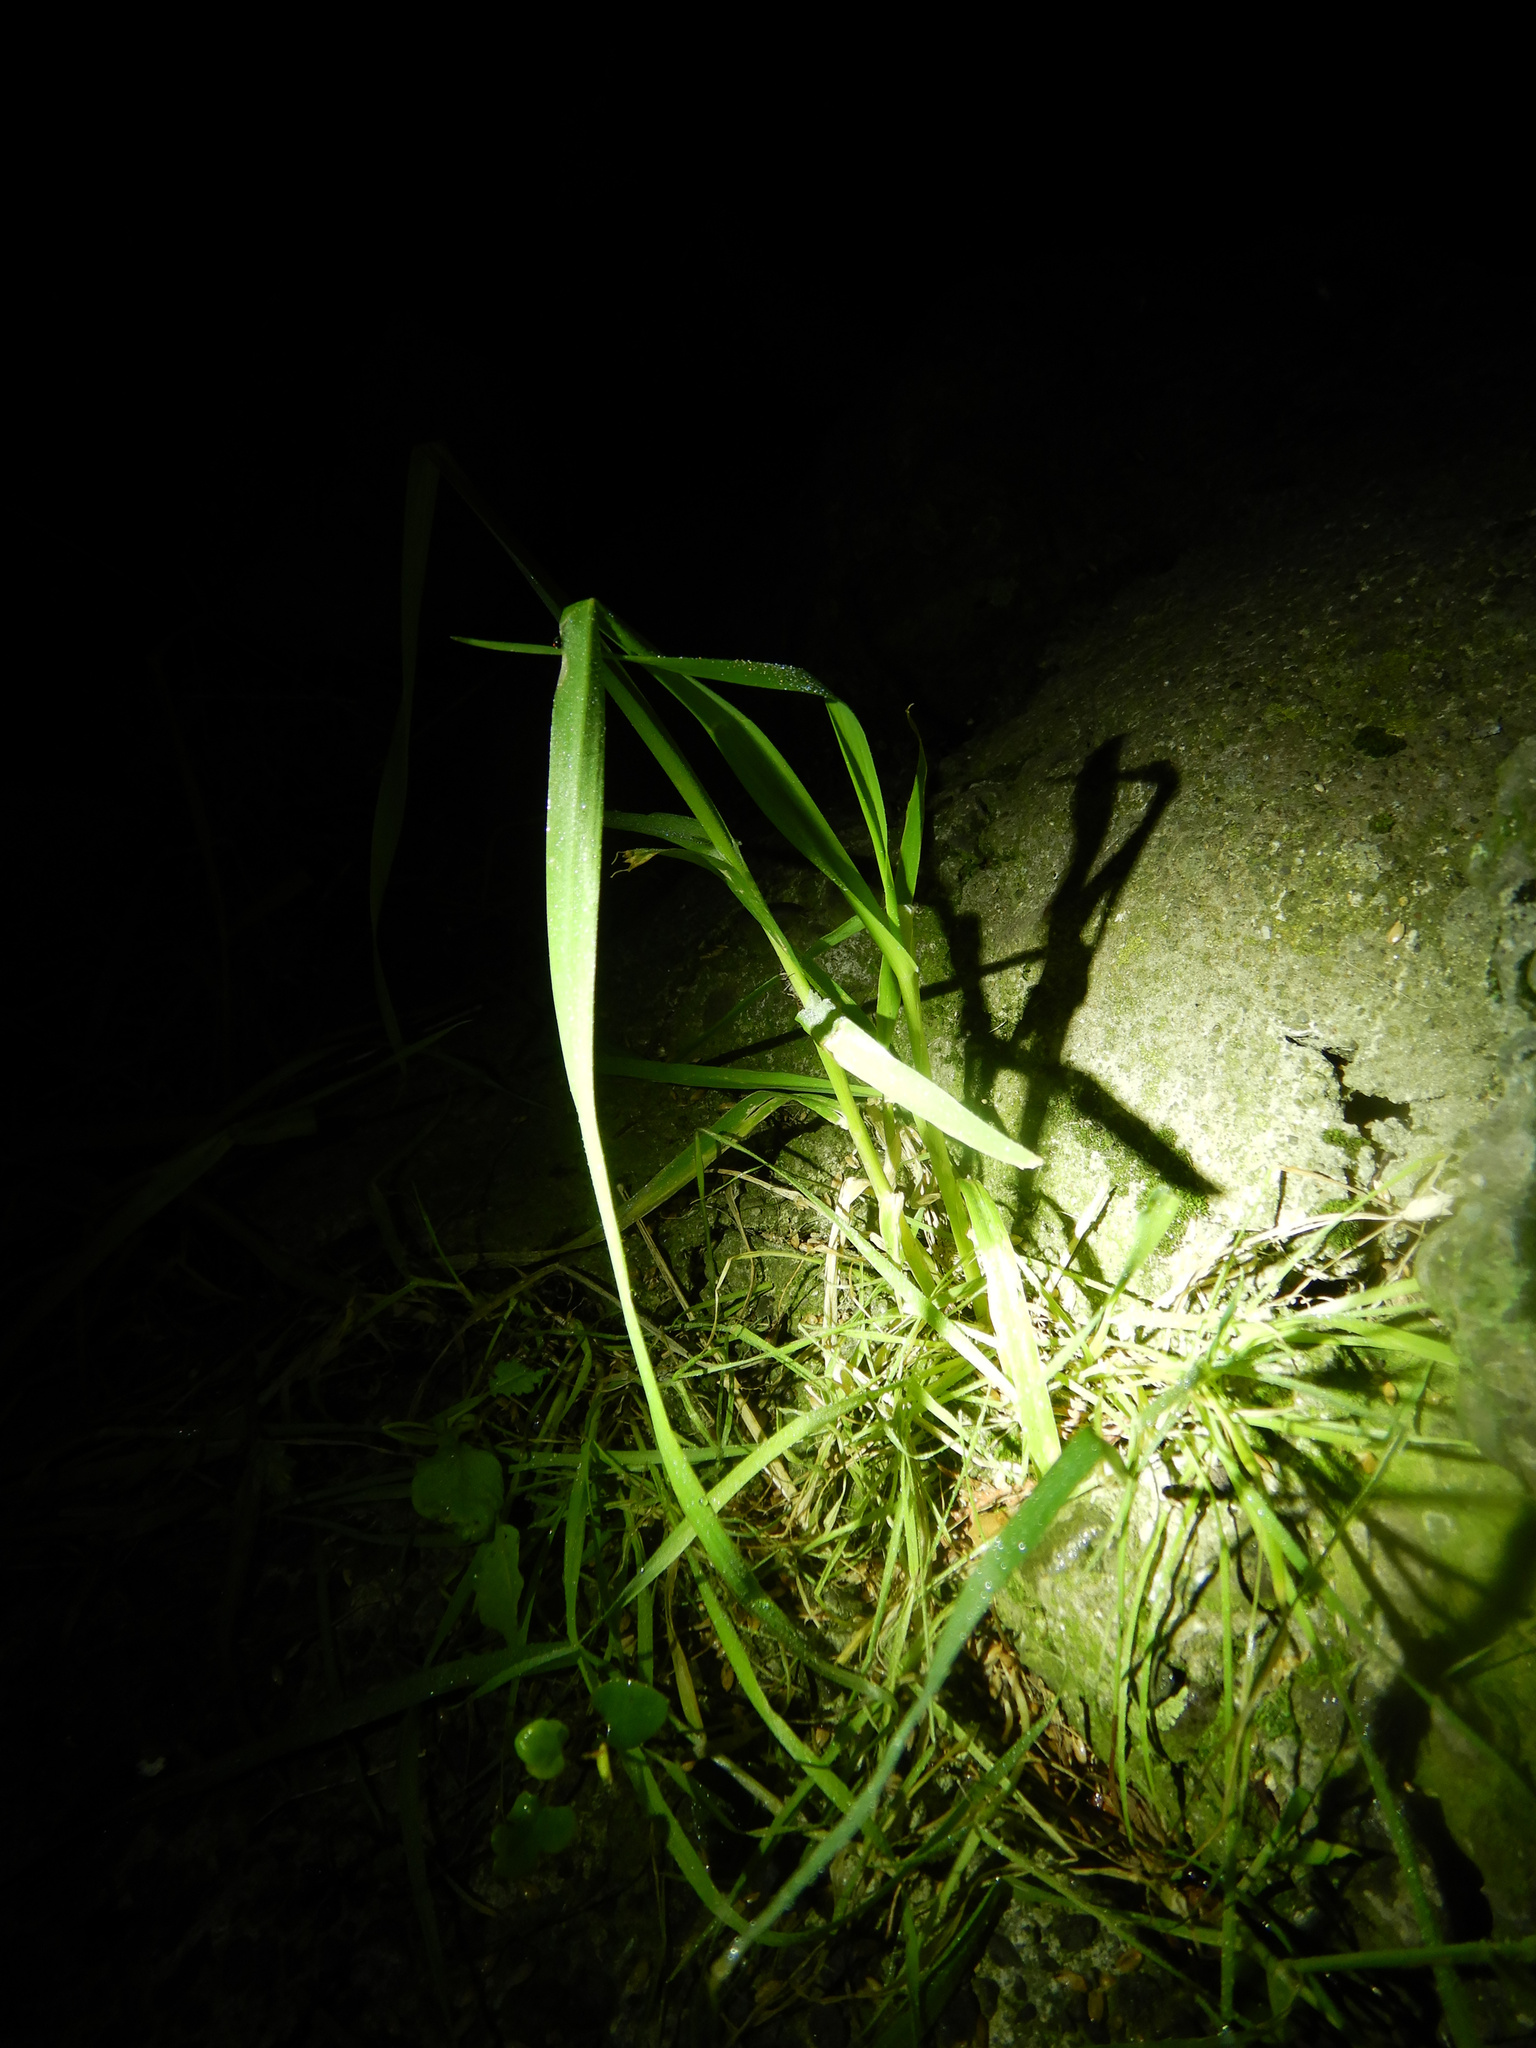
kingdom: Plantae
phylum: Tracheophyta
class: Liliopsida
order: Poales
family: Poaceae
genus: Dactylis
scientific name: Dactylis glomerata
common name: Orchardgrass
